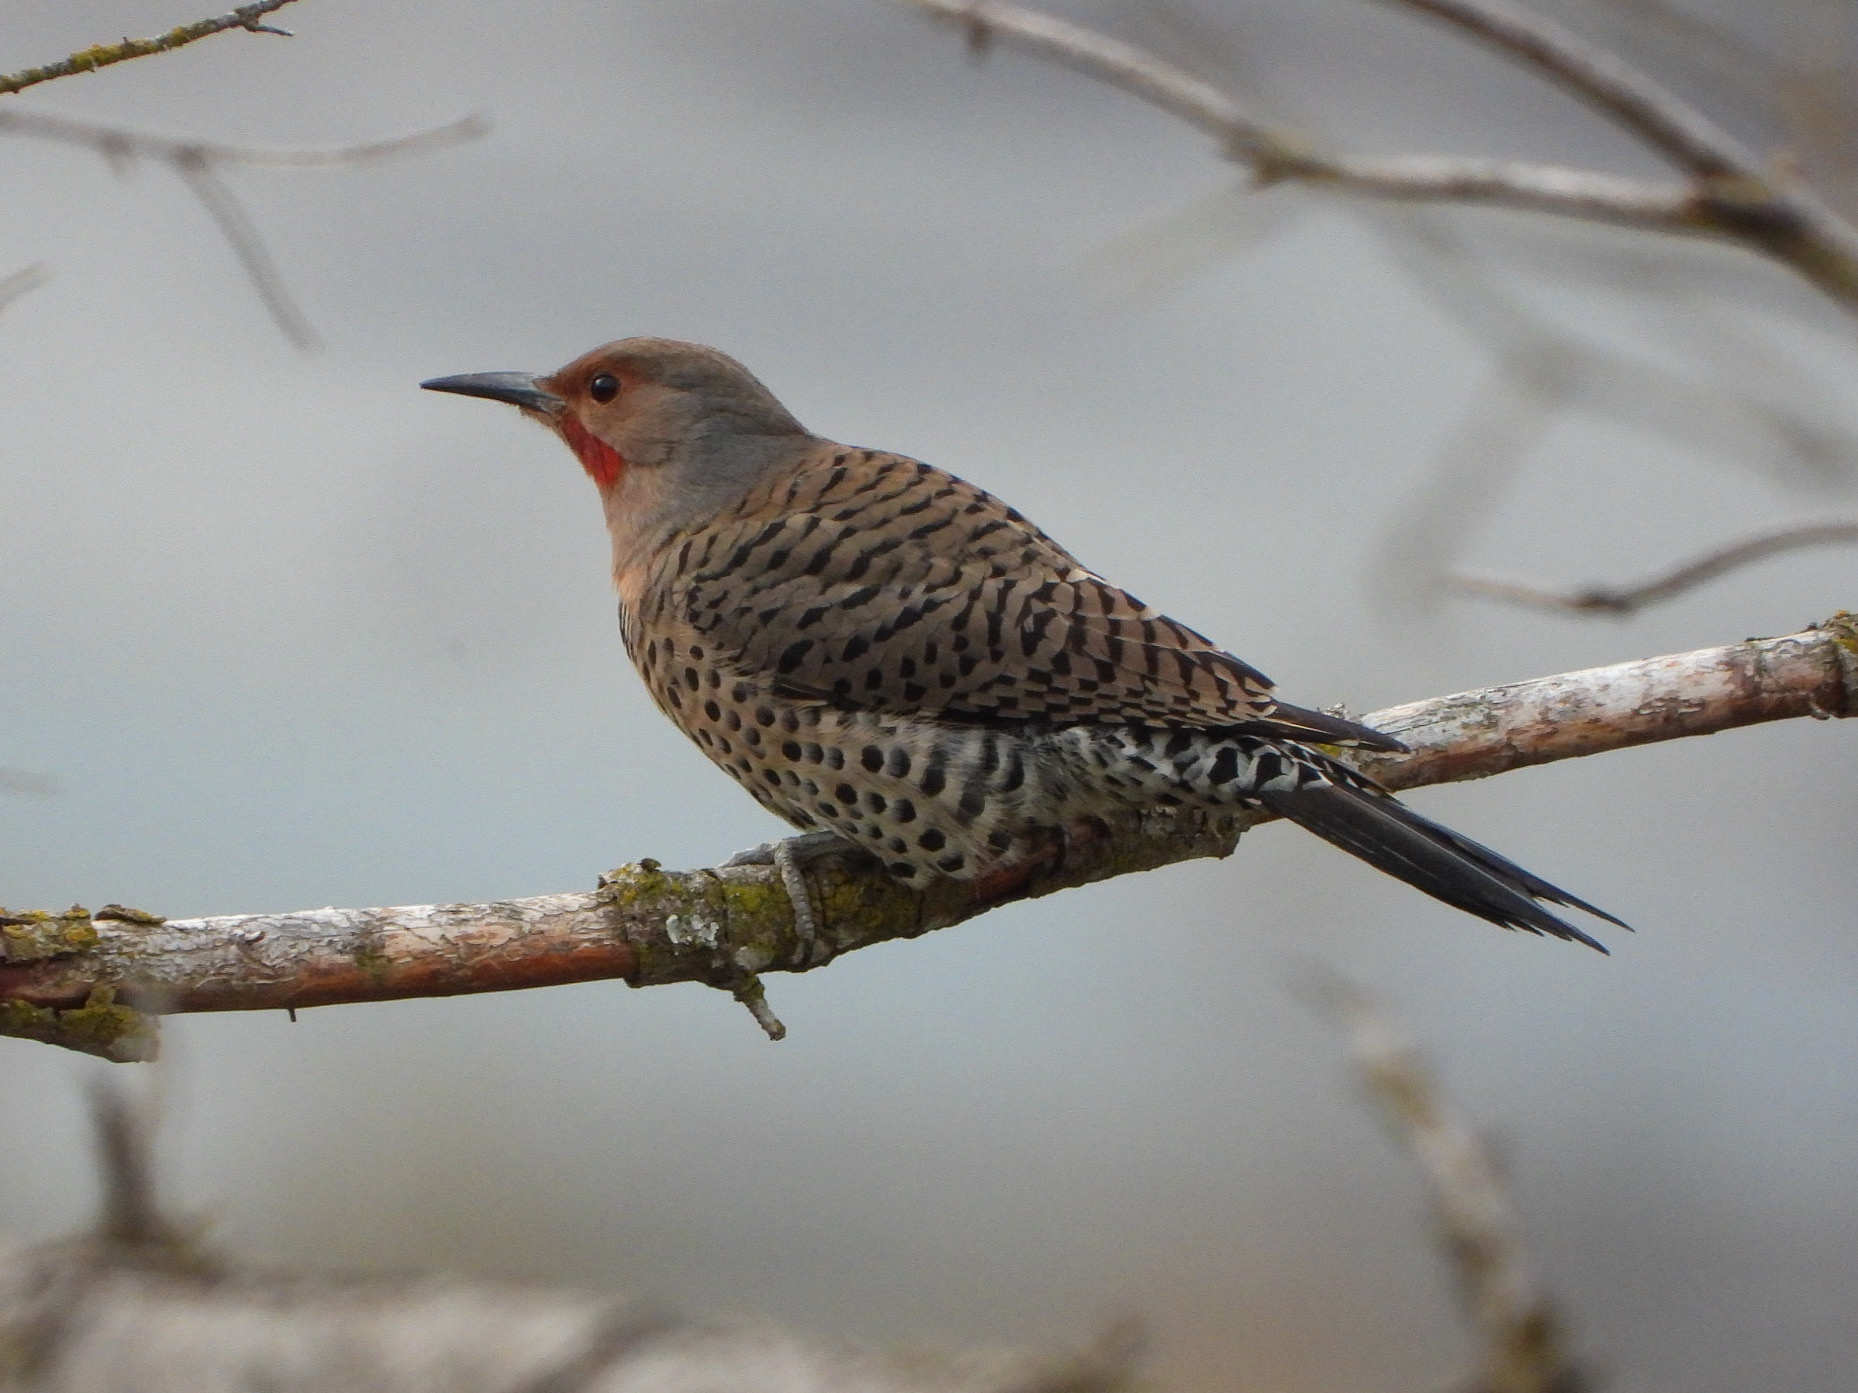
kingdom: Animalia
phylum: Chordata
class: Aves
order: Piciformes
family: Picidae
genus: Colaptes
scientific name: Colaptes
